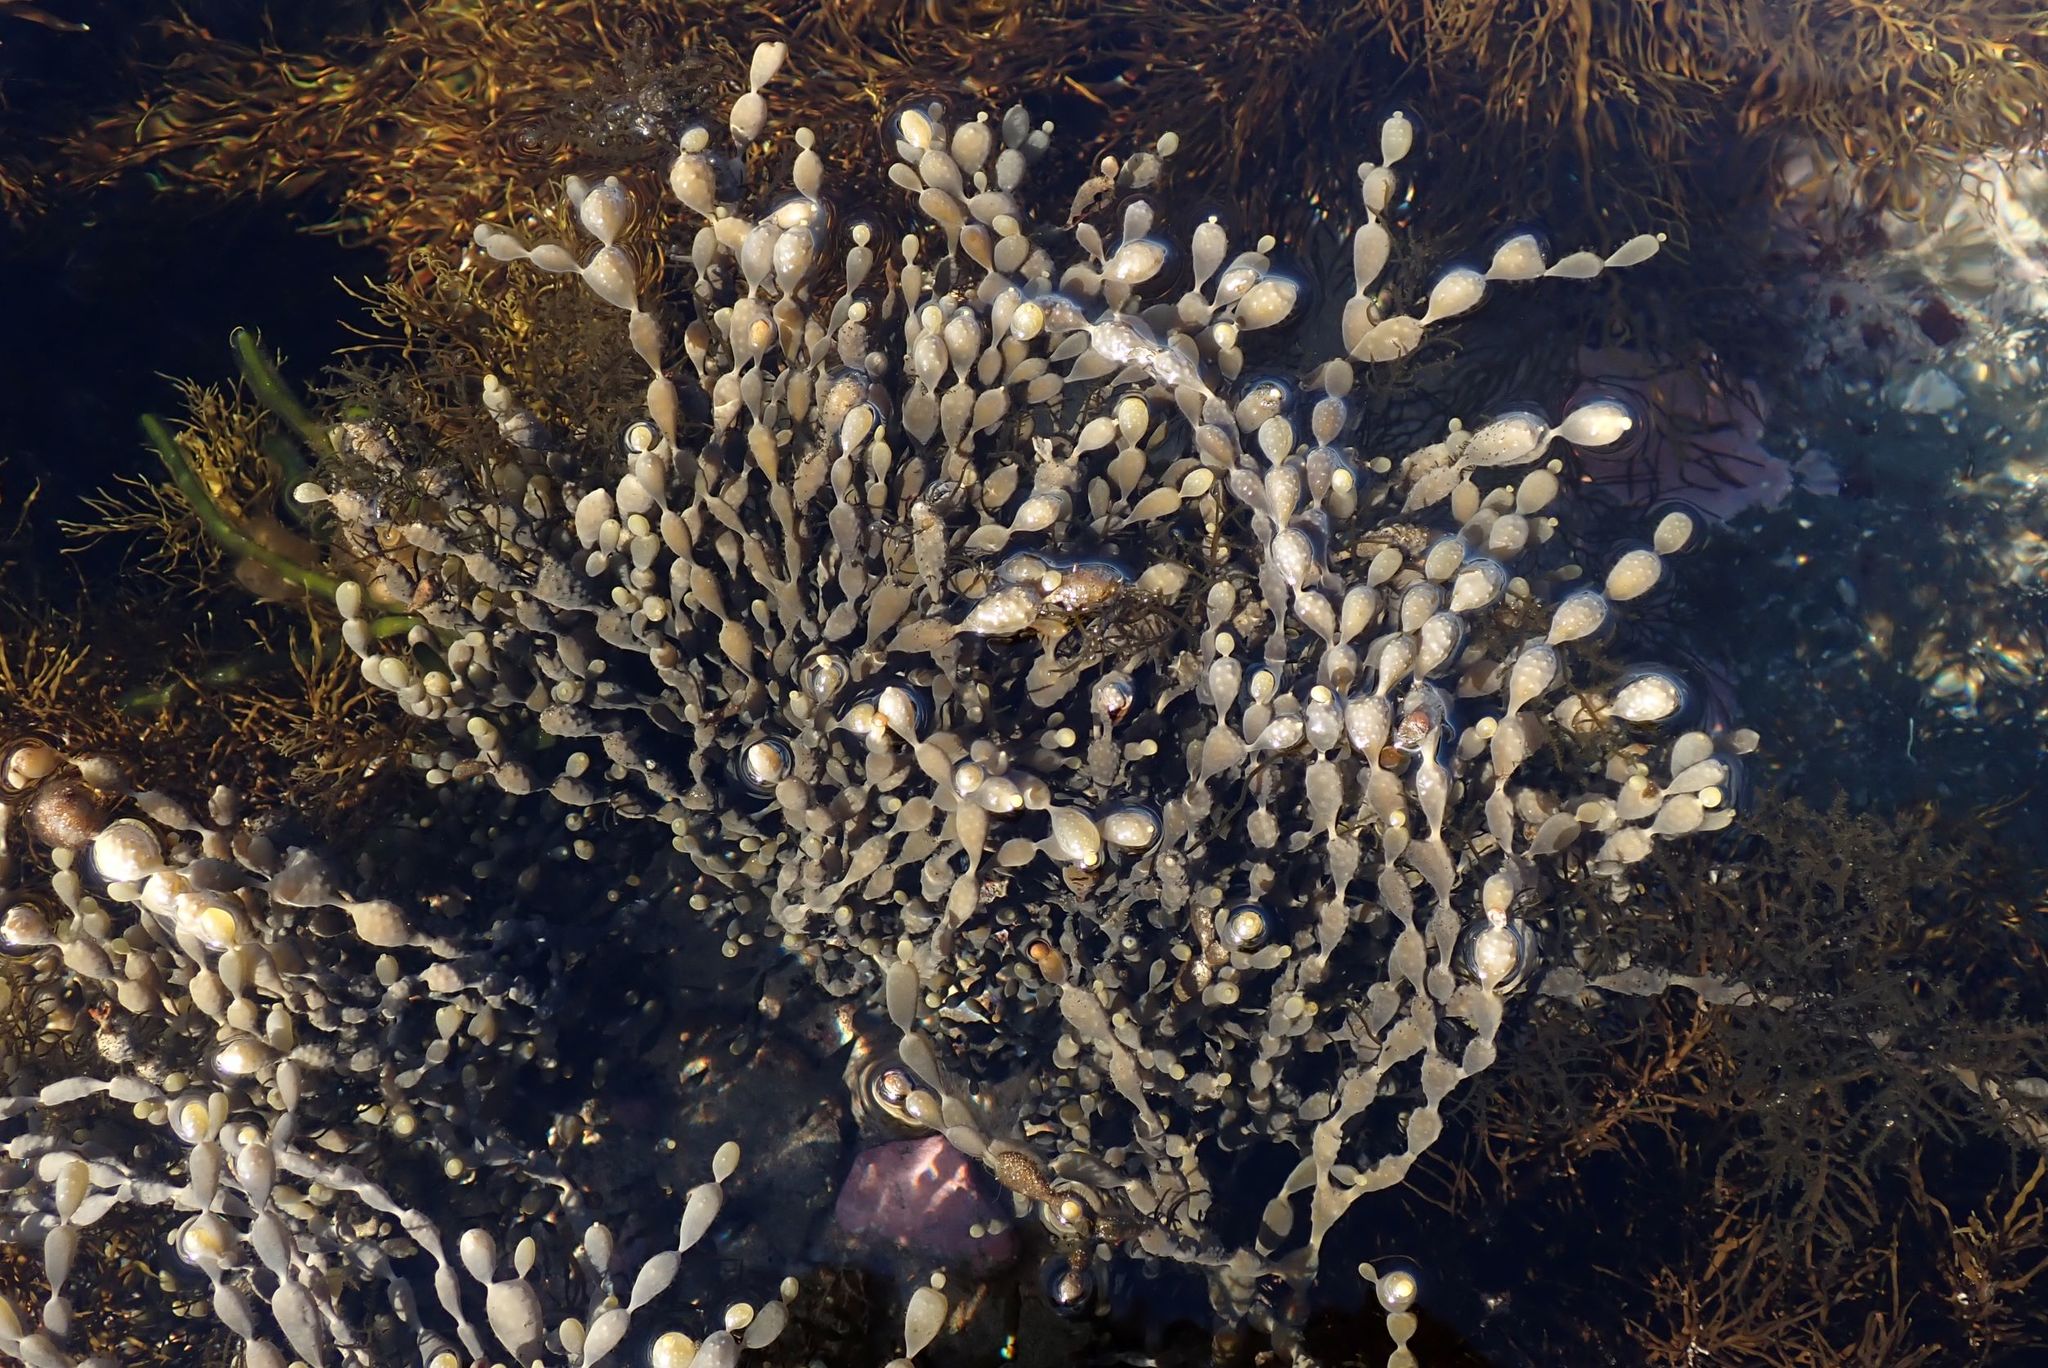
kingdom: Chromista
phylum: Ochrophyta
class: Phaeophyceae
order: Fucales
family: Hormosiraceae
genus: Hormosira
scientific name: Hormosira banksii
